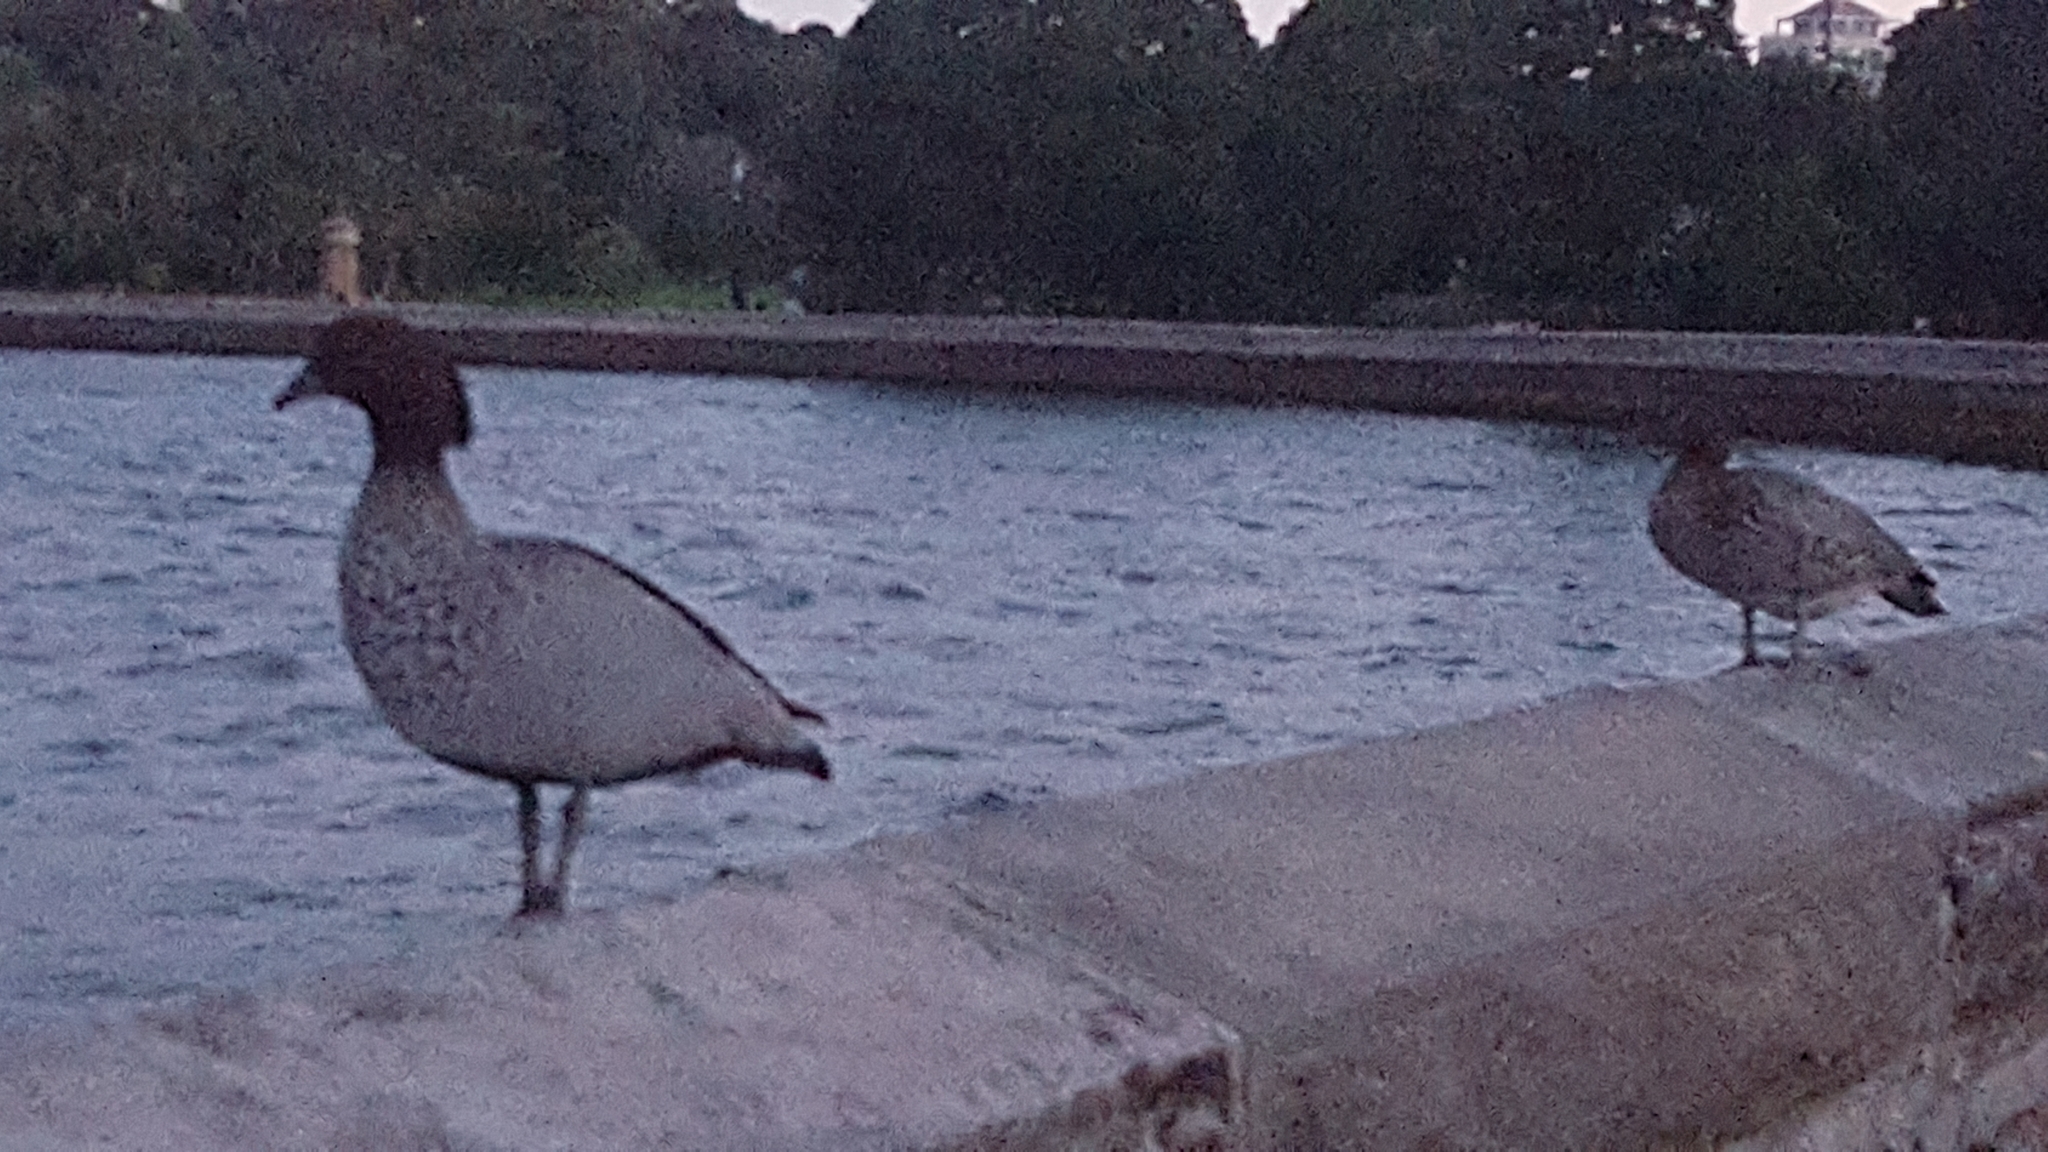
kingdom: Animalia
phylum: Chordata
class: Aves
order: Anseriformes
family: Anatidae
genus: Chenonetta
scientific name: Chenonetta jubata
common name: Maned duck
